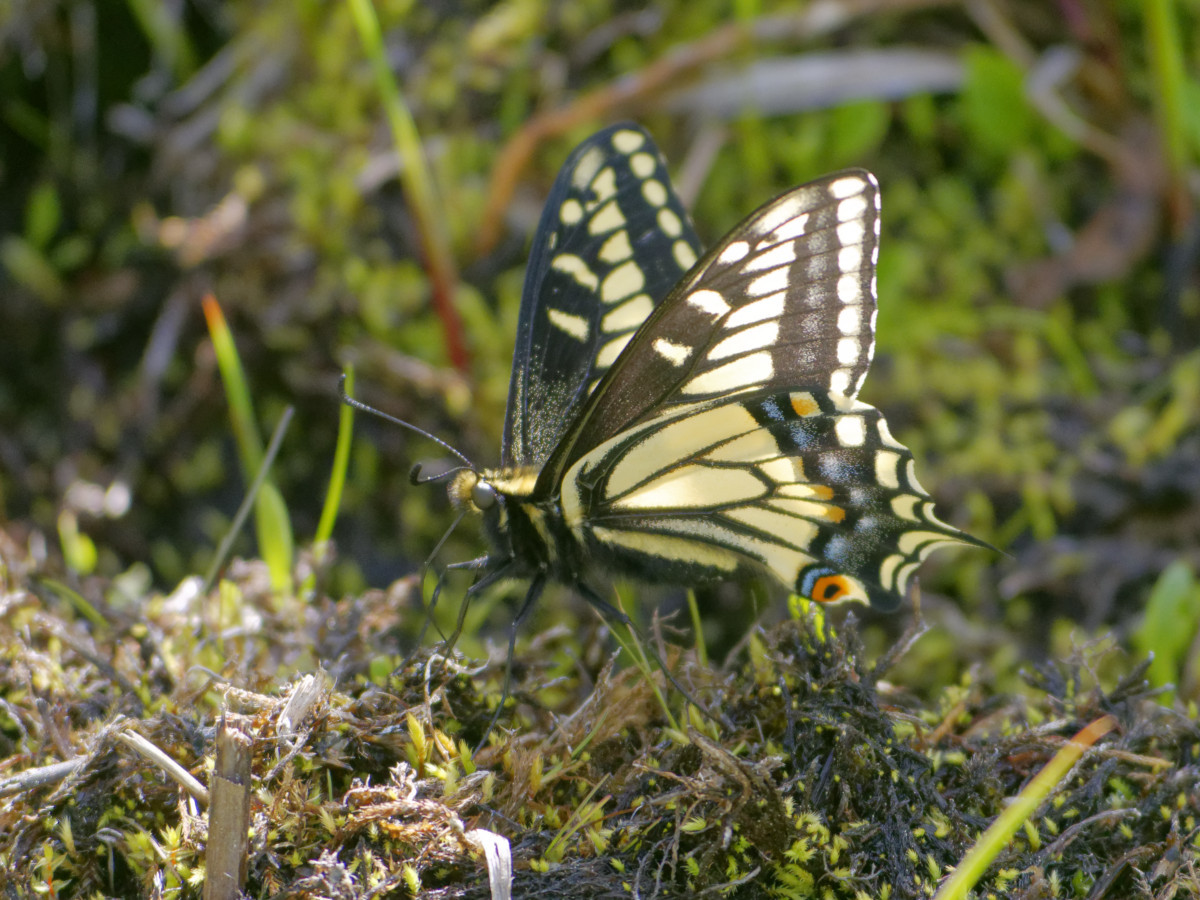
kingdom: Animalia
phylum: Arthropoda
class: Insecta
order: Lepidoptera
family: Papilionidae
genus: Papilio
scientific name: Papilio zelicaon
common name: Anise swallowtail
